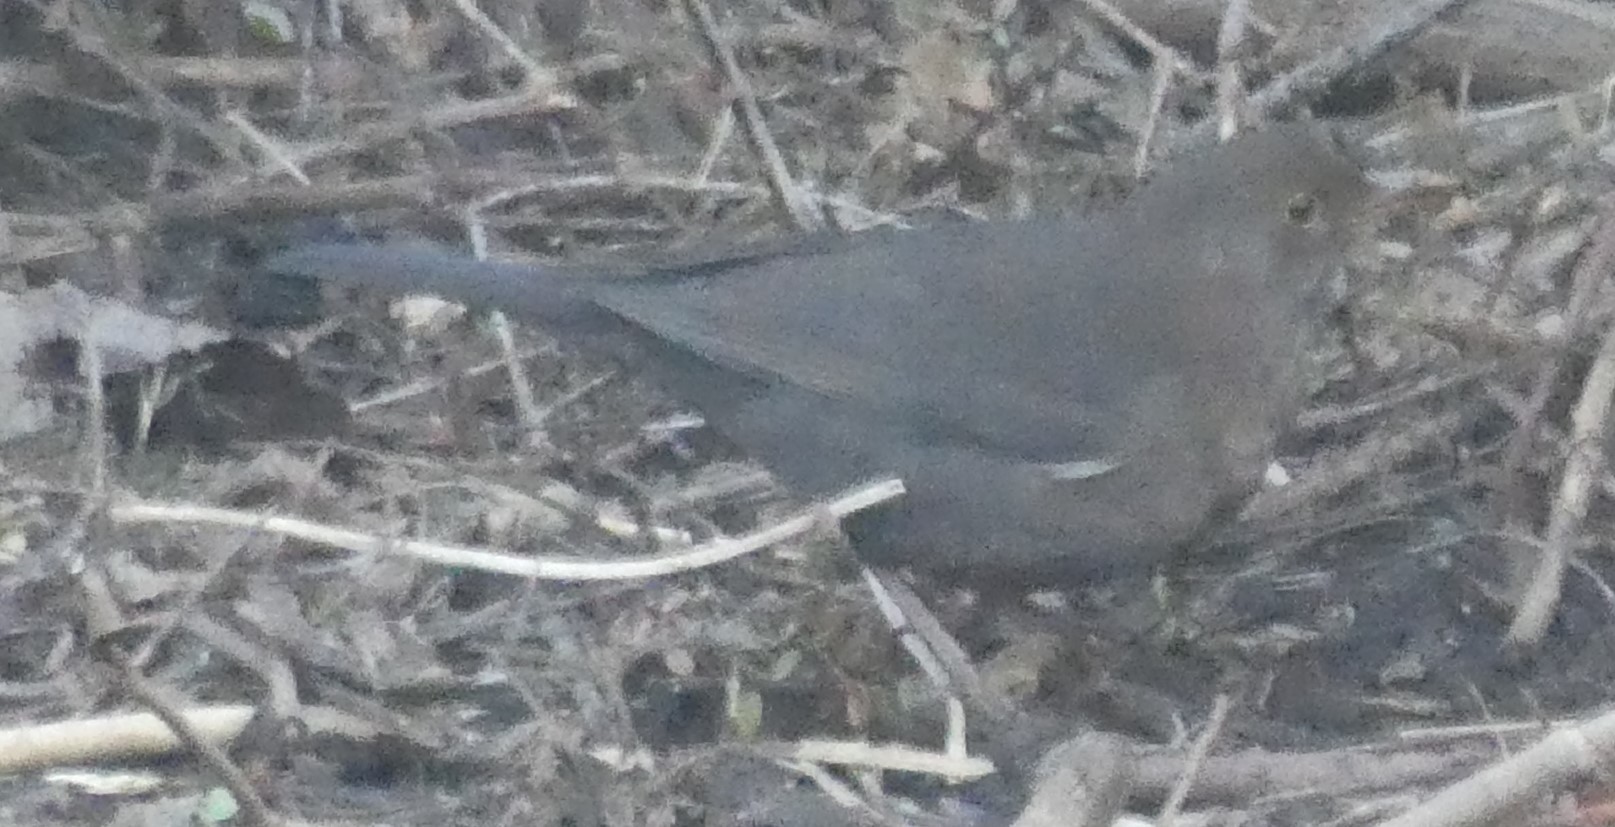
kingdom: Animalia
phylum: Chordata
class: Aves
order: Passeriformes
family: Turdidae
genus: Turdus
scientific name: Turdus merula
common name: Common blackbird
